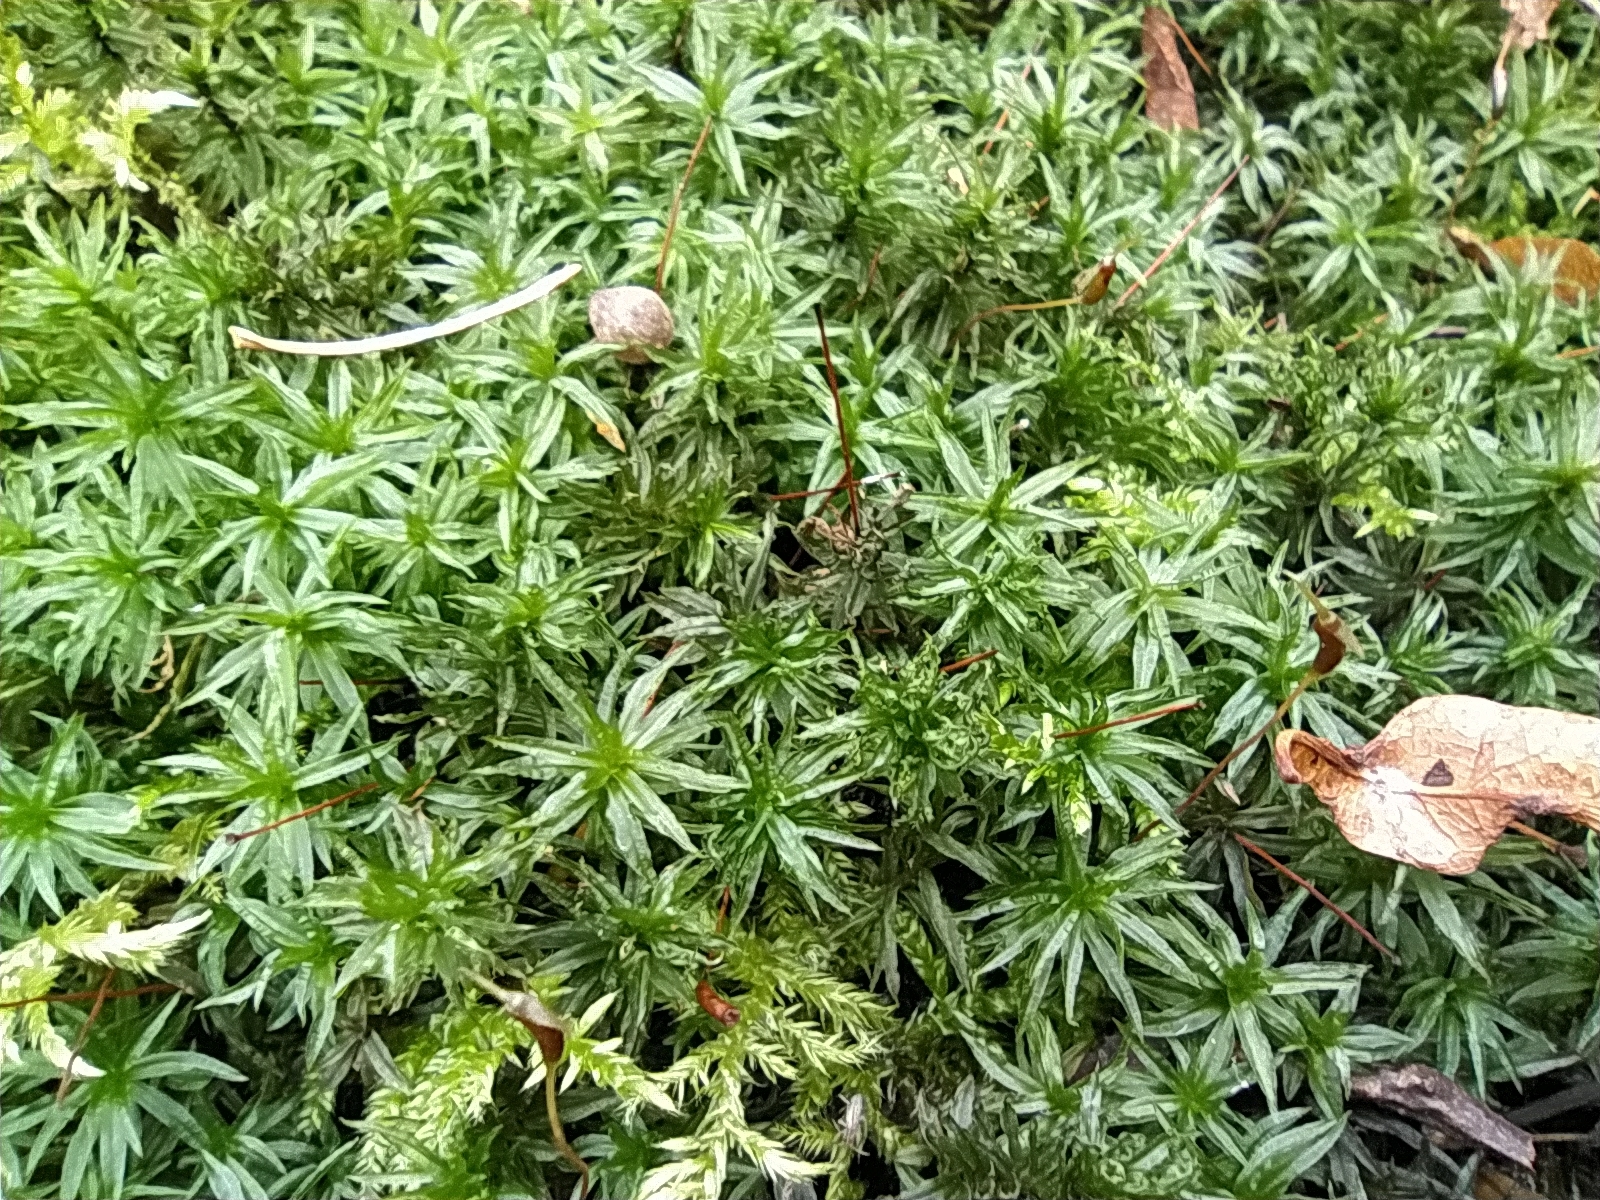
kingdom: Plantae
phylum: Bryophyta
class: Polytrichopsida
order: Polytrichales
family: Polytrichaceae
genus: Atrichum
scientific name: Atrichum undulatum
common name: Common smoothcap
